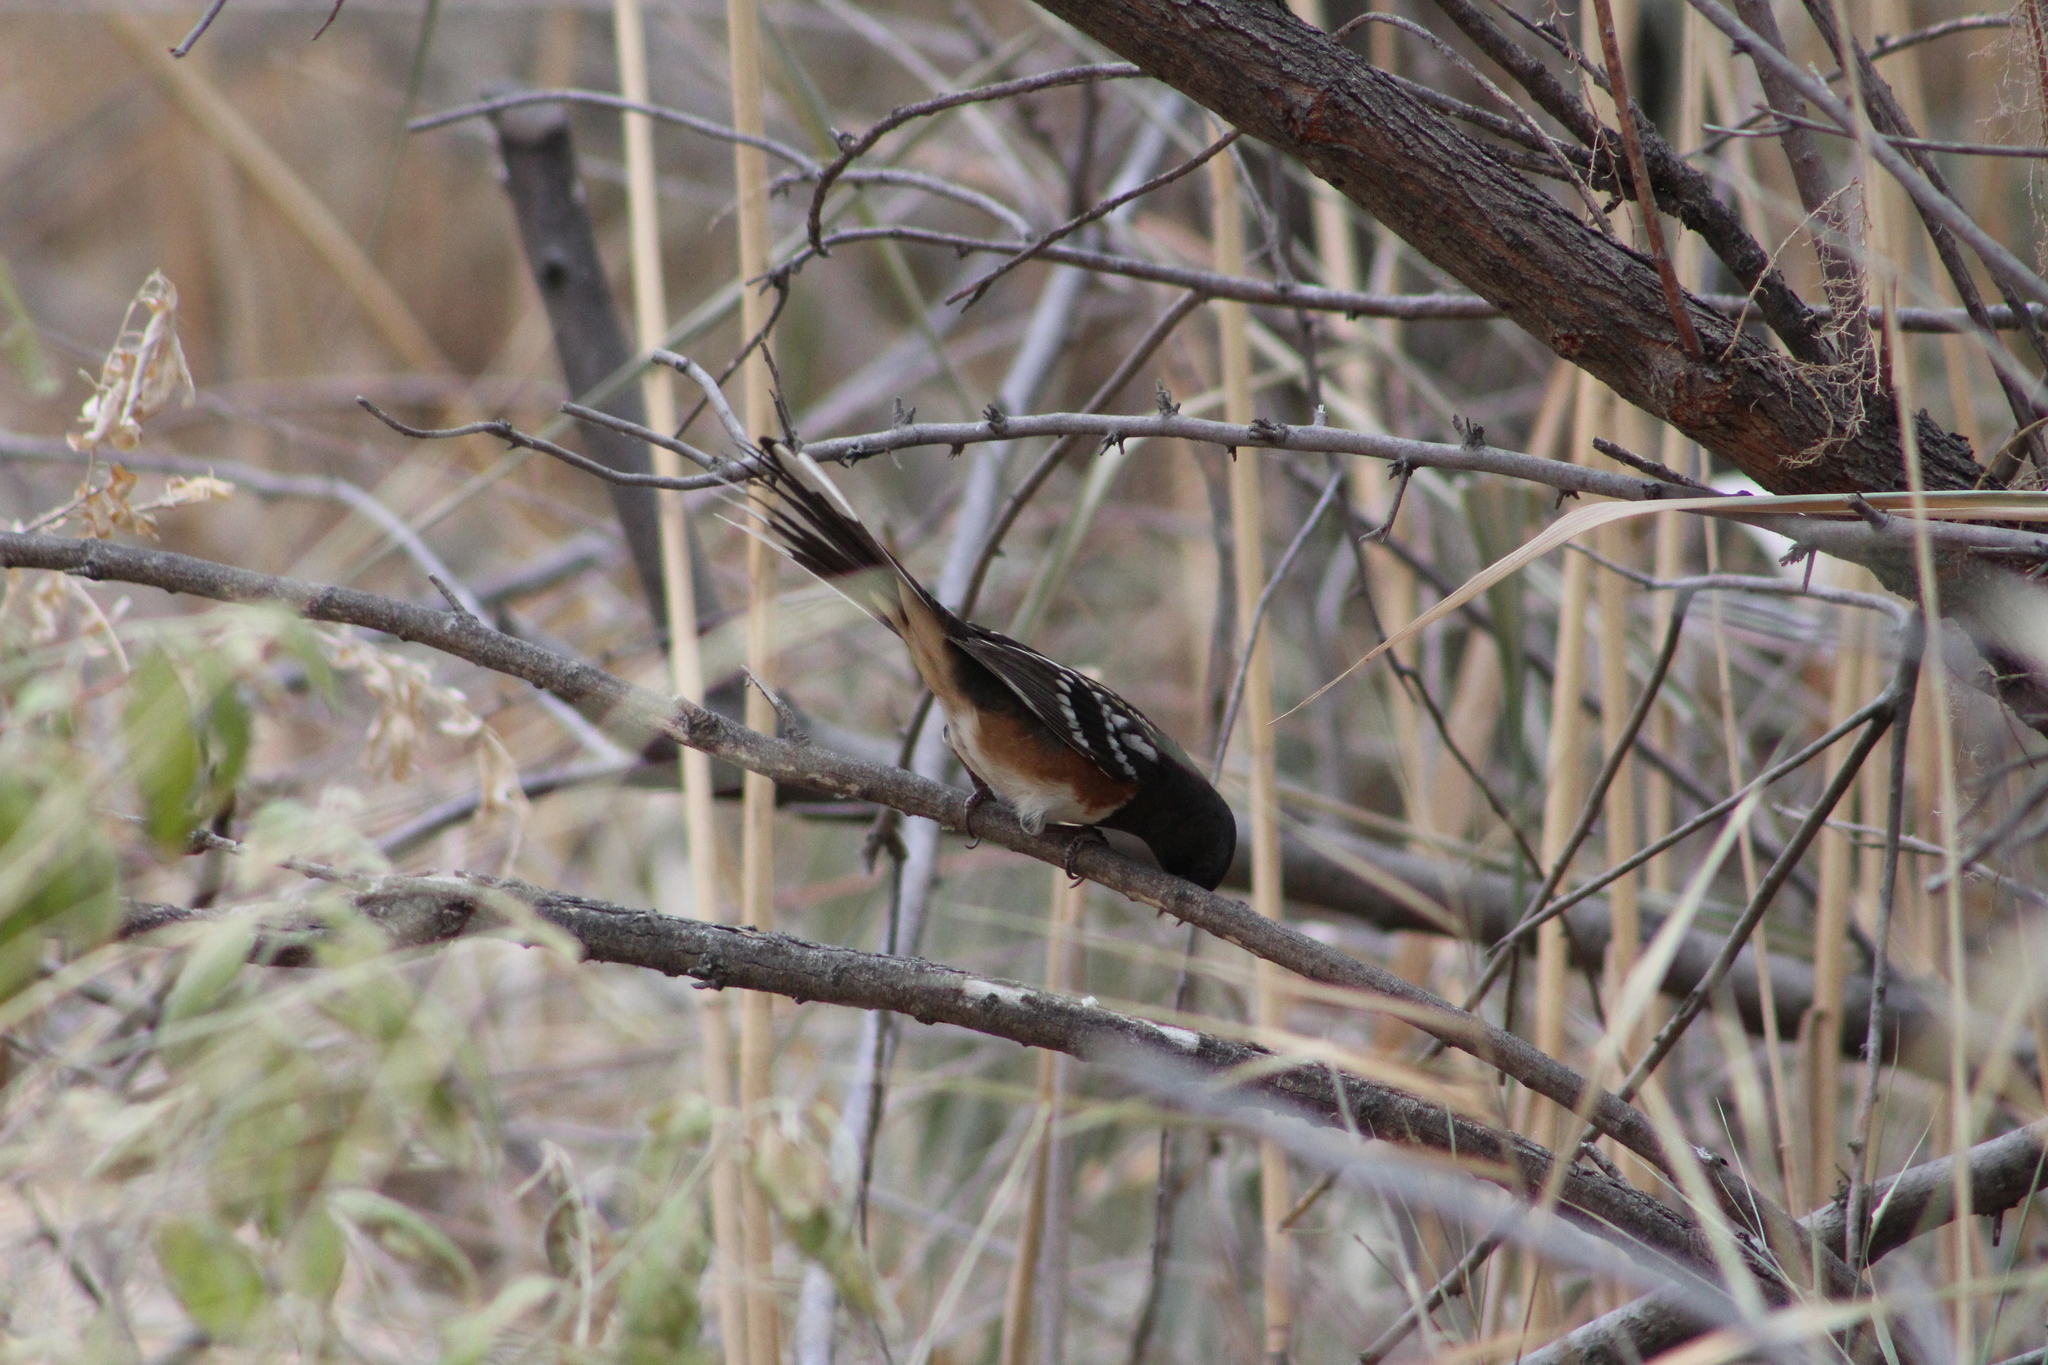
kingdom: Animalia
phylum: Chordata
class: Aves
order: Passeriformes
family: Passerellidae
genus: Pipilo
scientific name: Pipilo maculatus
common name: Spotted towhee
